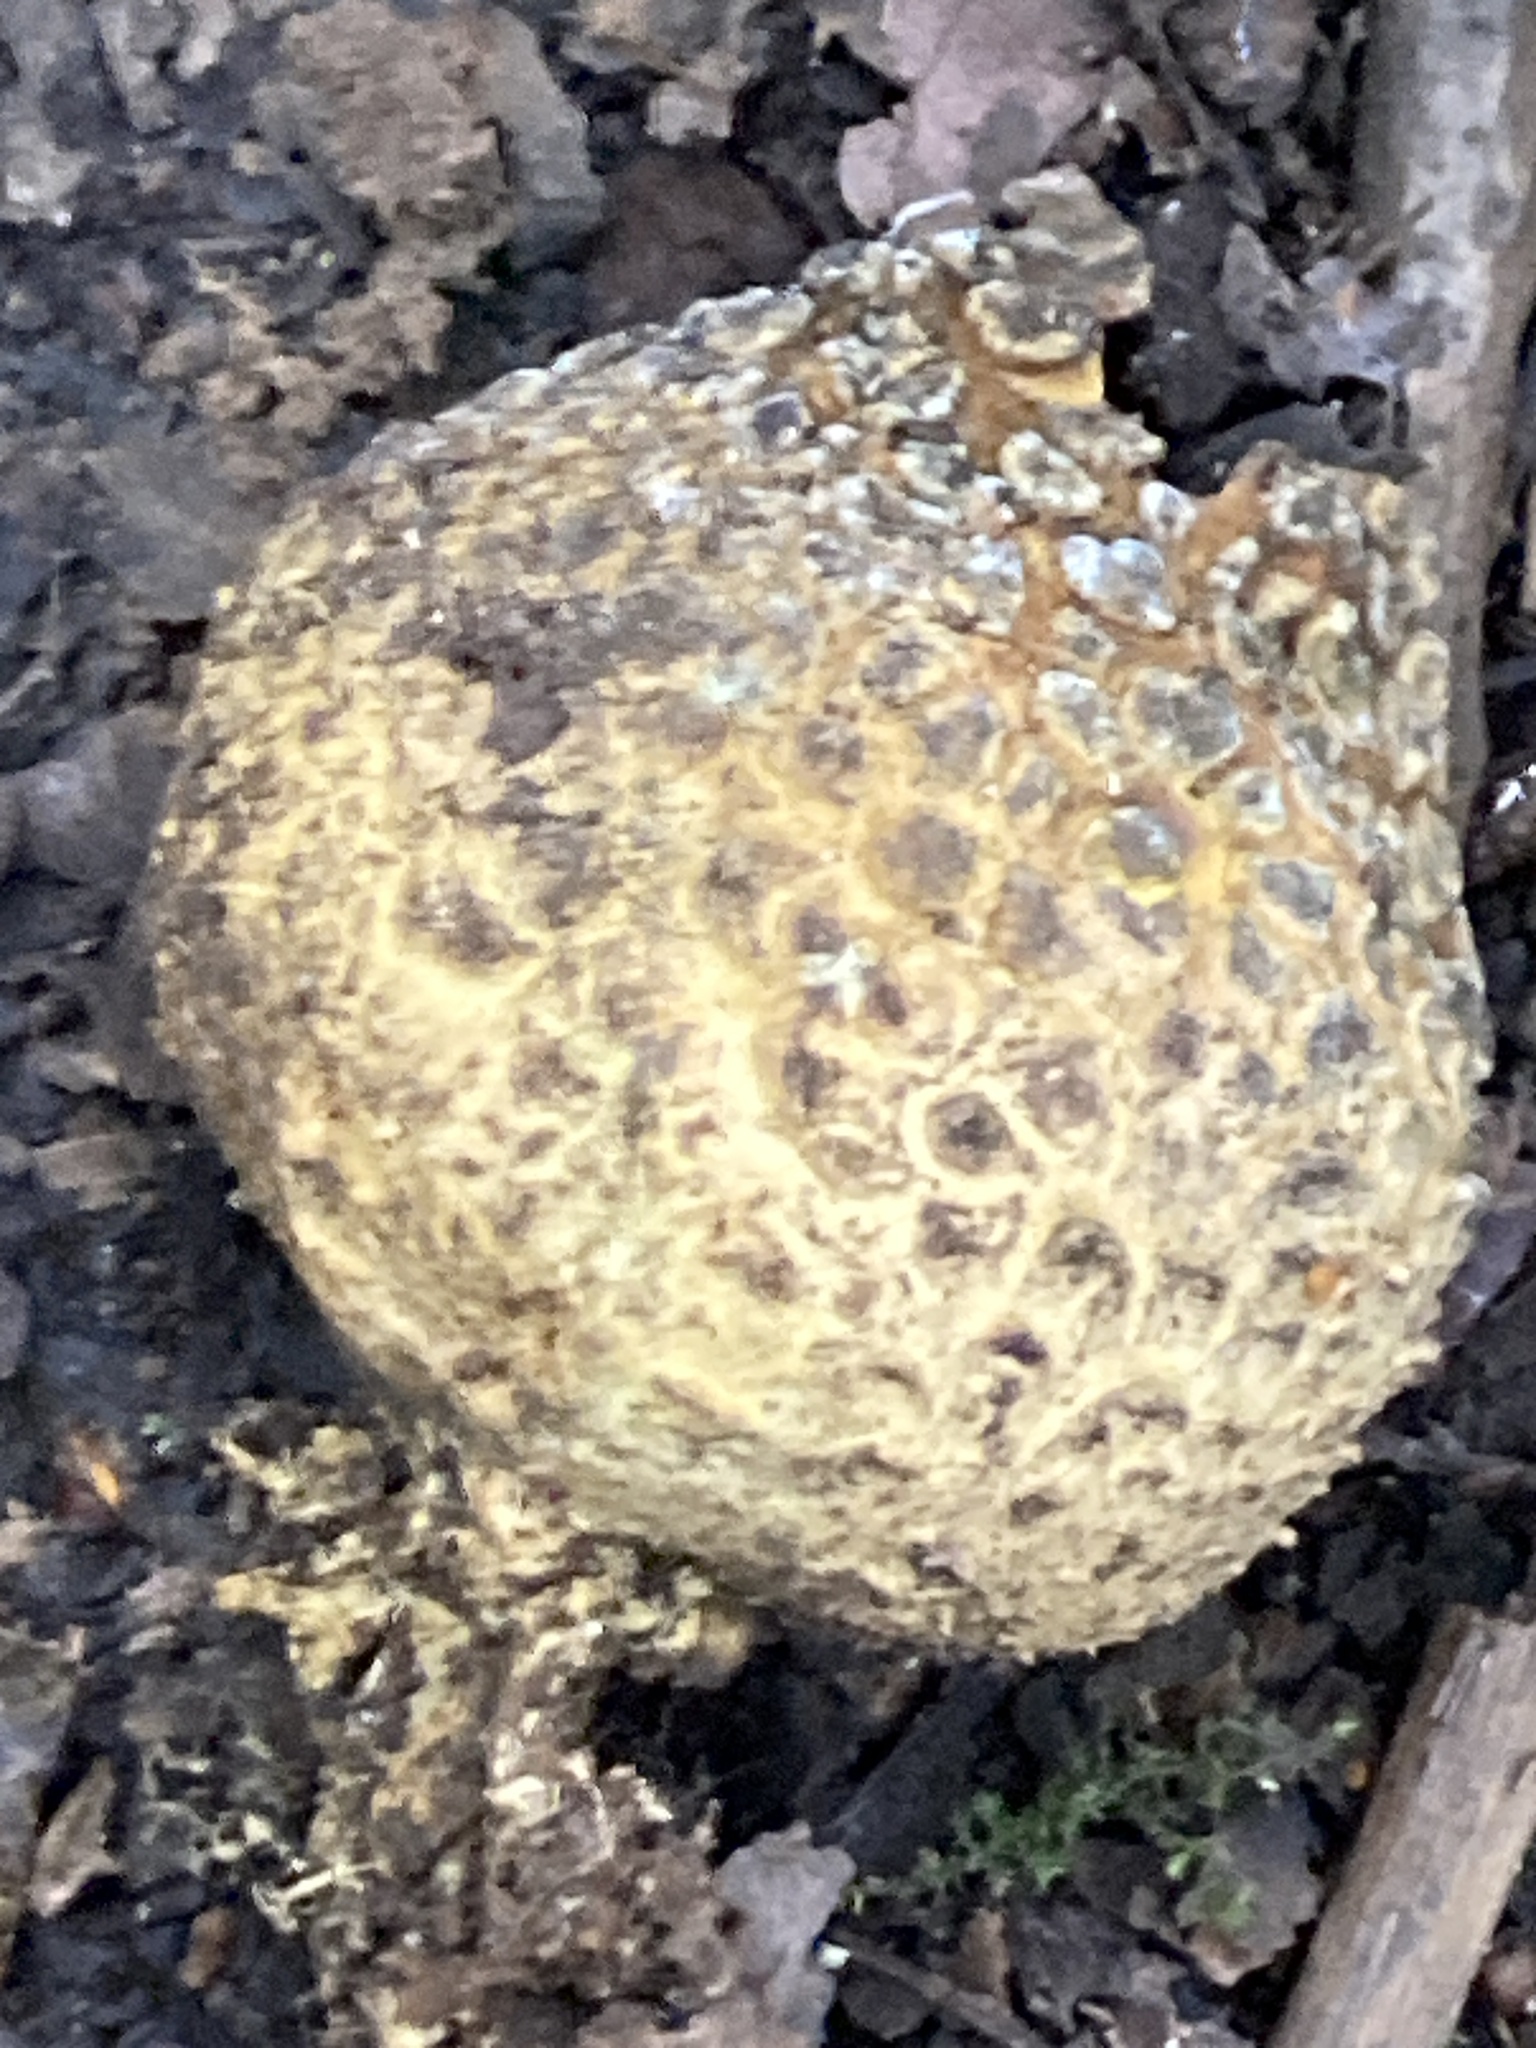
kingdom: Fungi
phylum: Basidiomycota
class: Agaricomycetes
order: Boletales
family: Sclerodermataceae
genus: Scleroderma
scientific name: Scleroderma citrinum
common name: Common earthball
